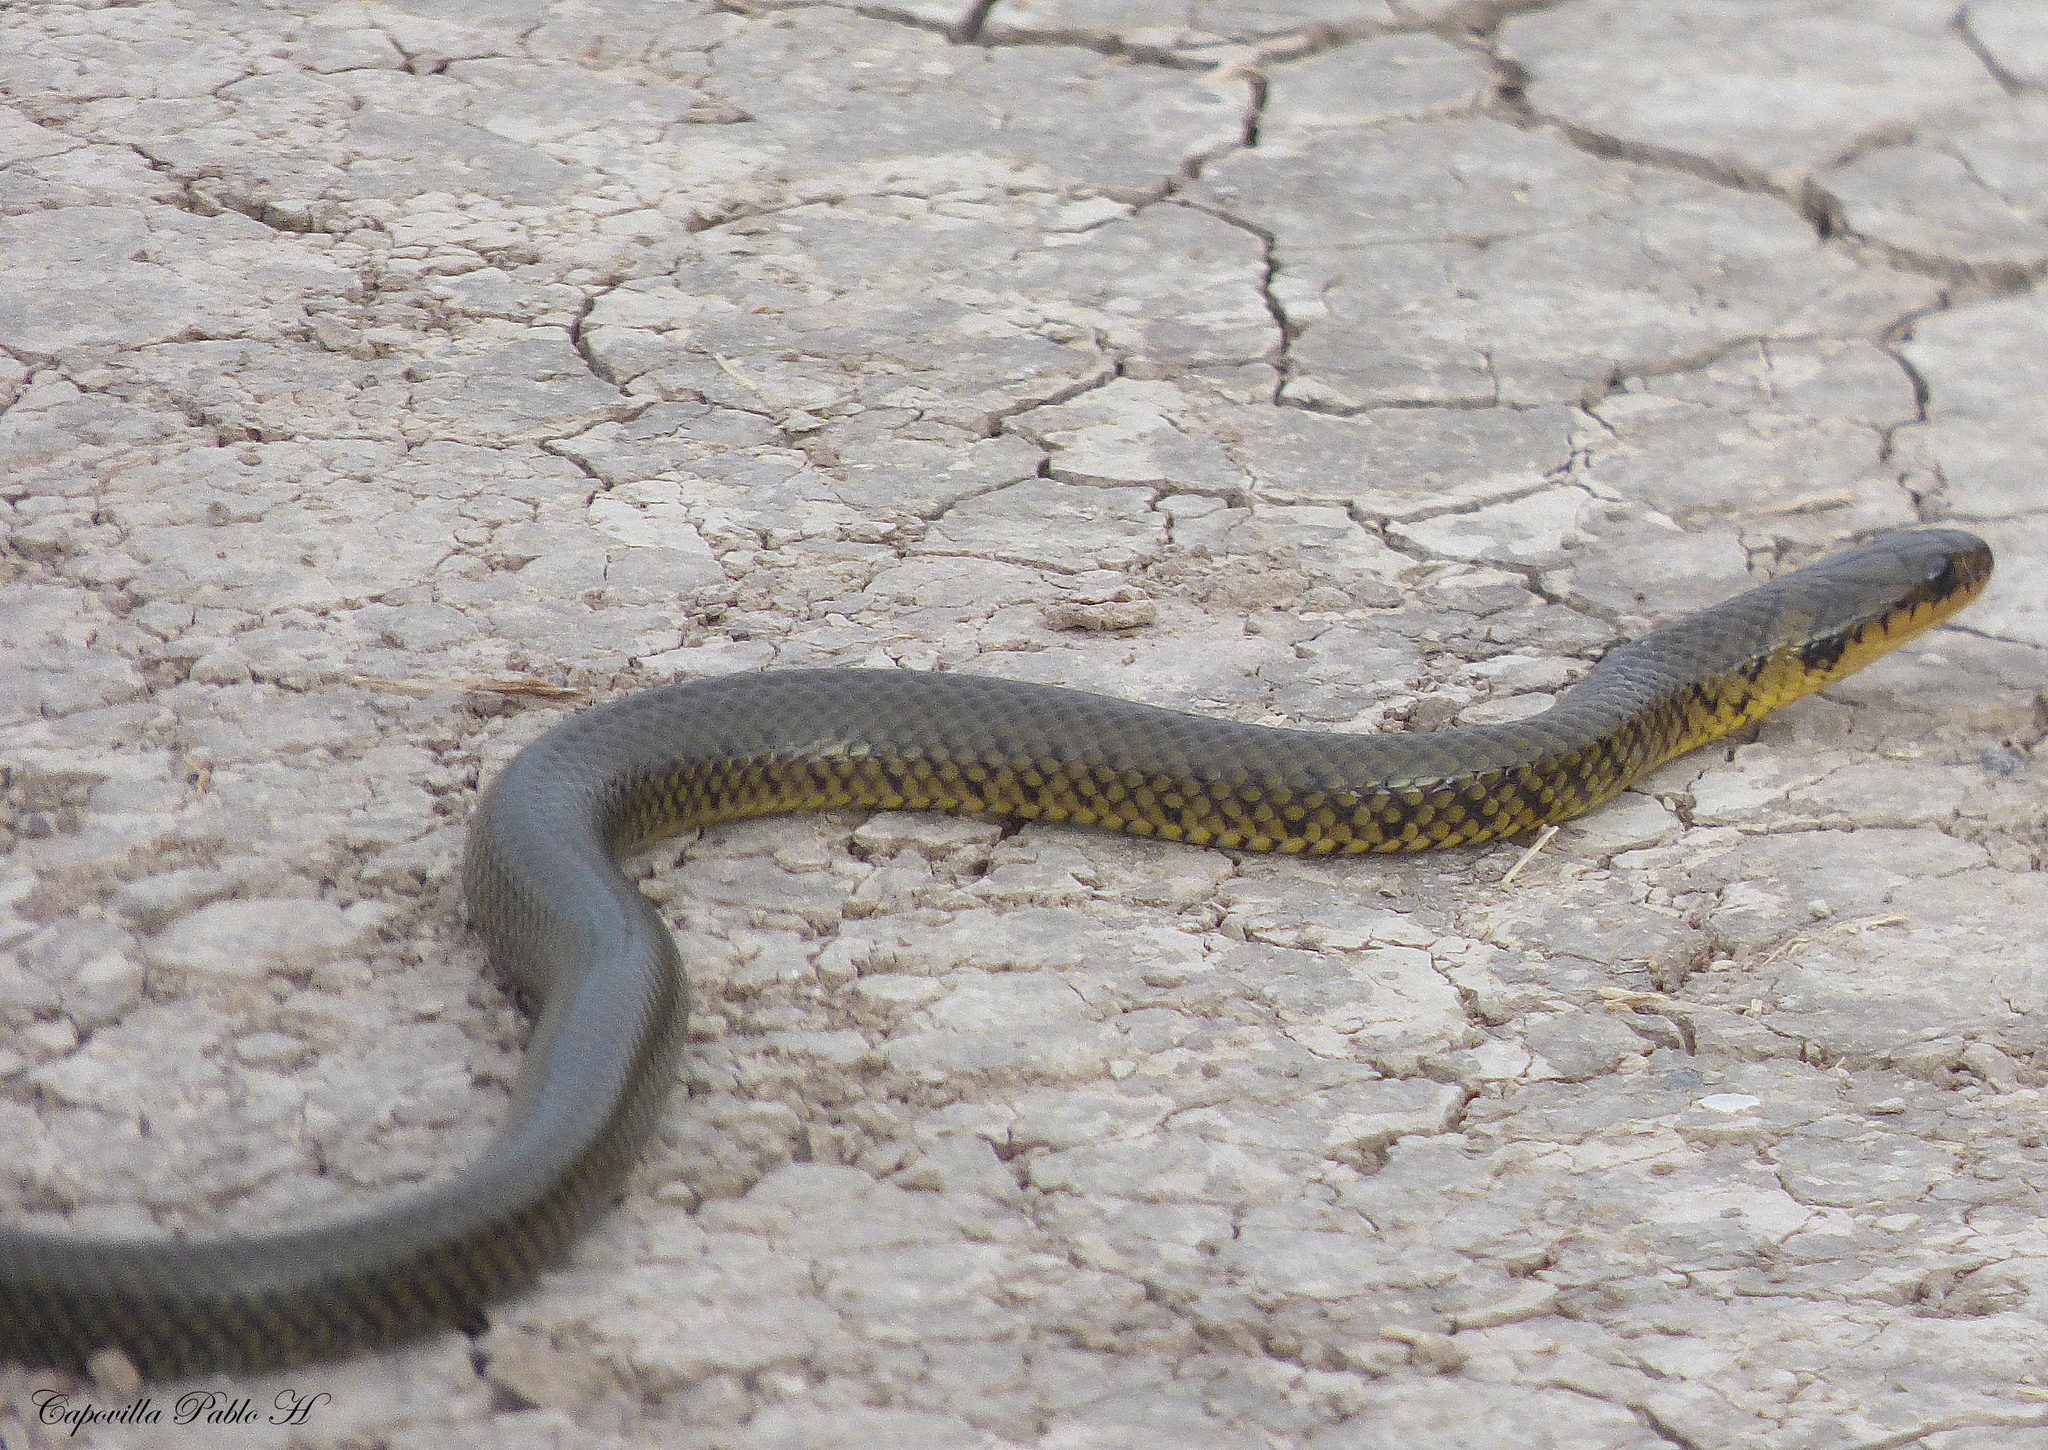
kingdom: Animalia
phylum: Chordata
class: Squamata
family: Colubridae
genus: Erythrolamprus
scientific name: Erythrolamprus semiaureus
